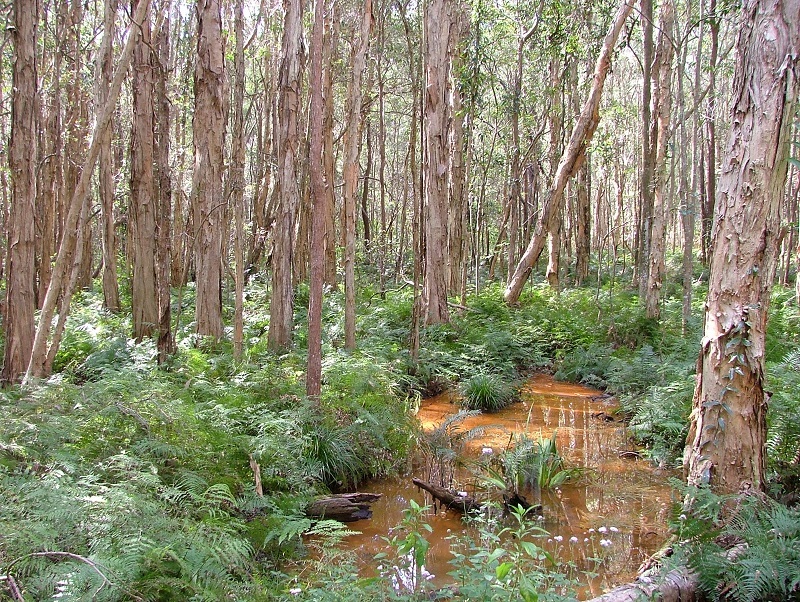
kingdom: Plantae
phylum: Tracheophyta
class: Magnoliopsida
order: Myrtales
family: Myrtaceae
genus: Melaleuca
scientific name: Melaleuca quinquenervia
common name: Punktree
